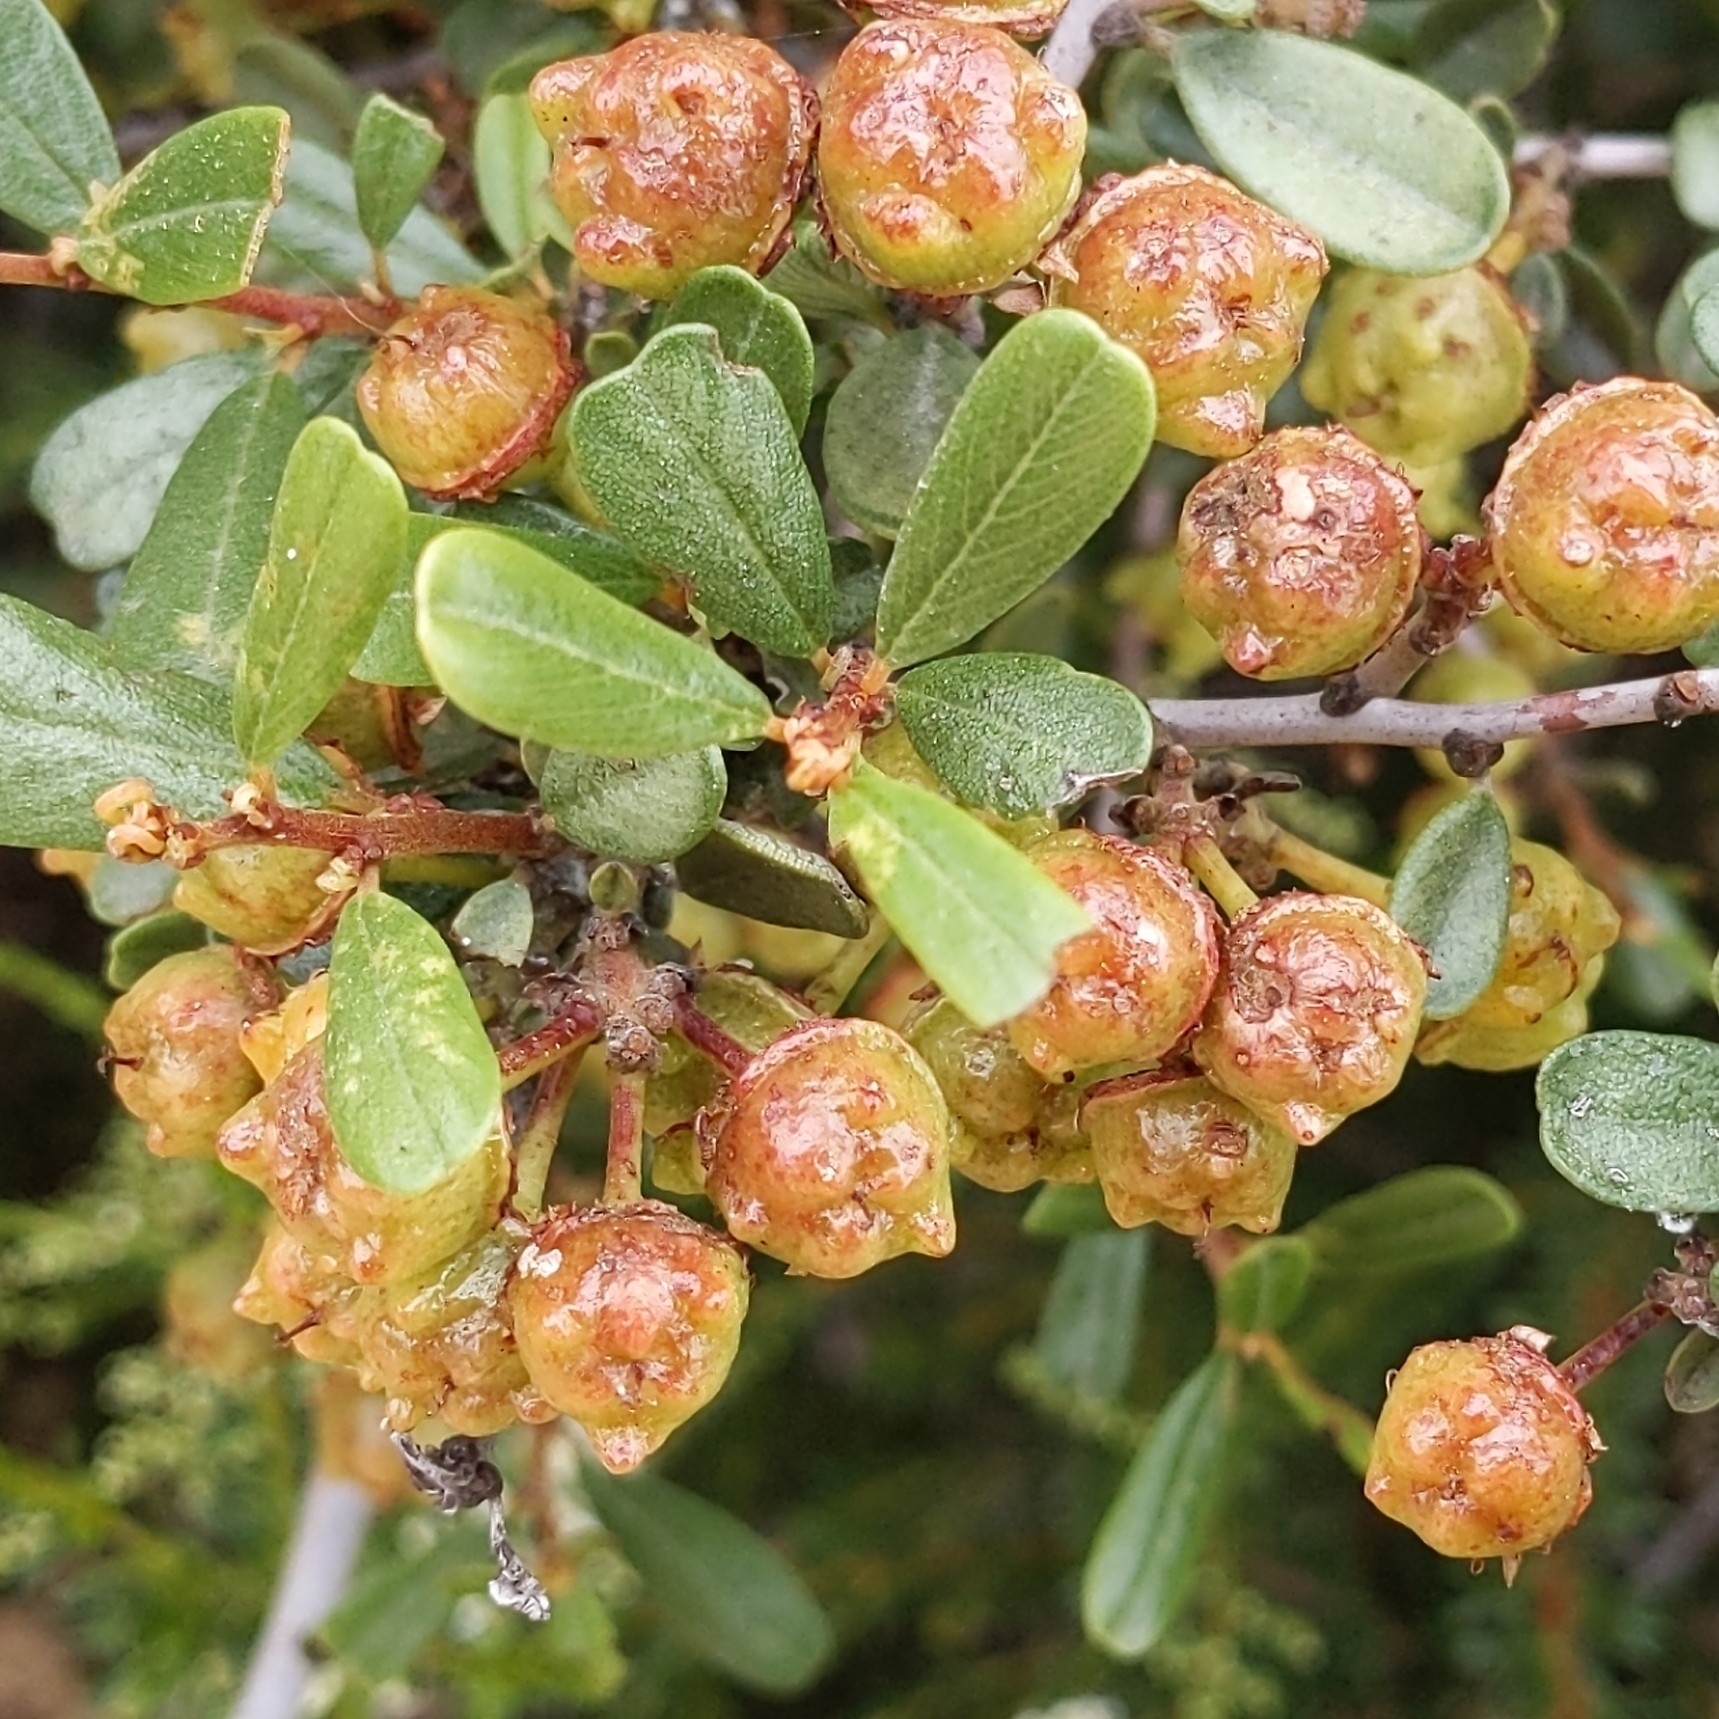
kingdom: Plantae
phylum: Tracheophyta
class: Magnoliopsida
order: Rosales
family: Rhamnaceae
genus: Ceanothus
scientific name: Ceanothus megacarpus
